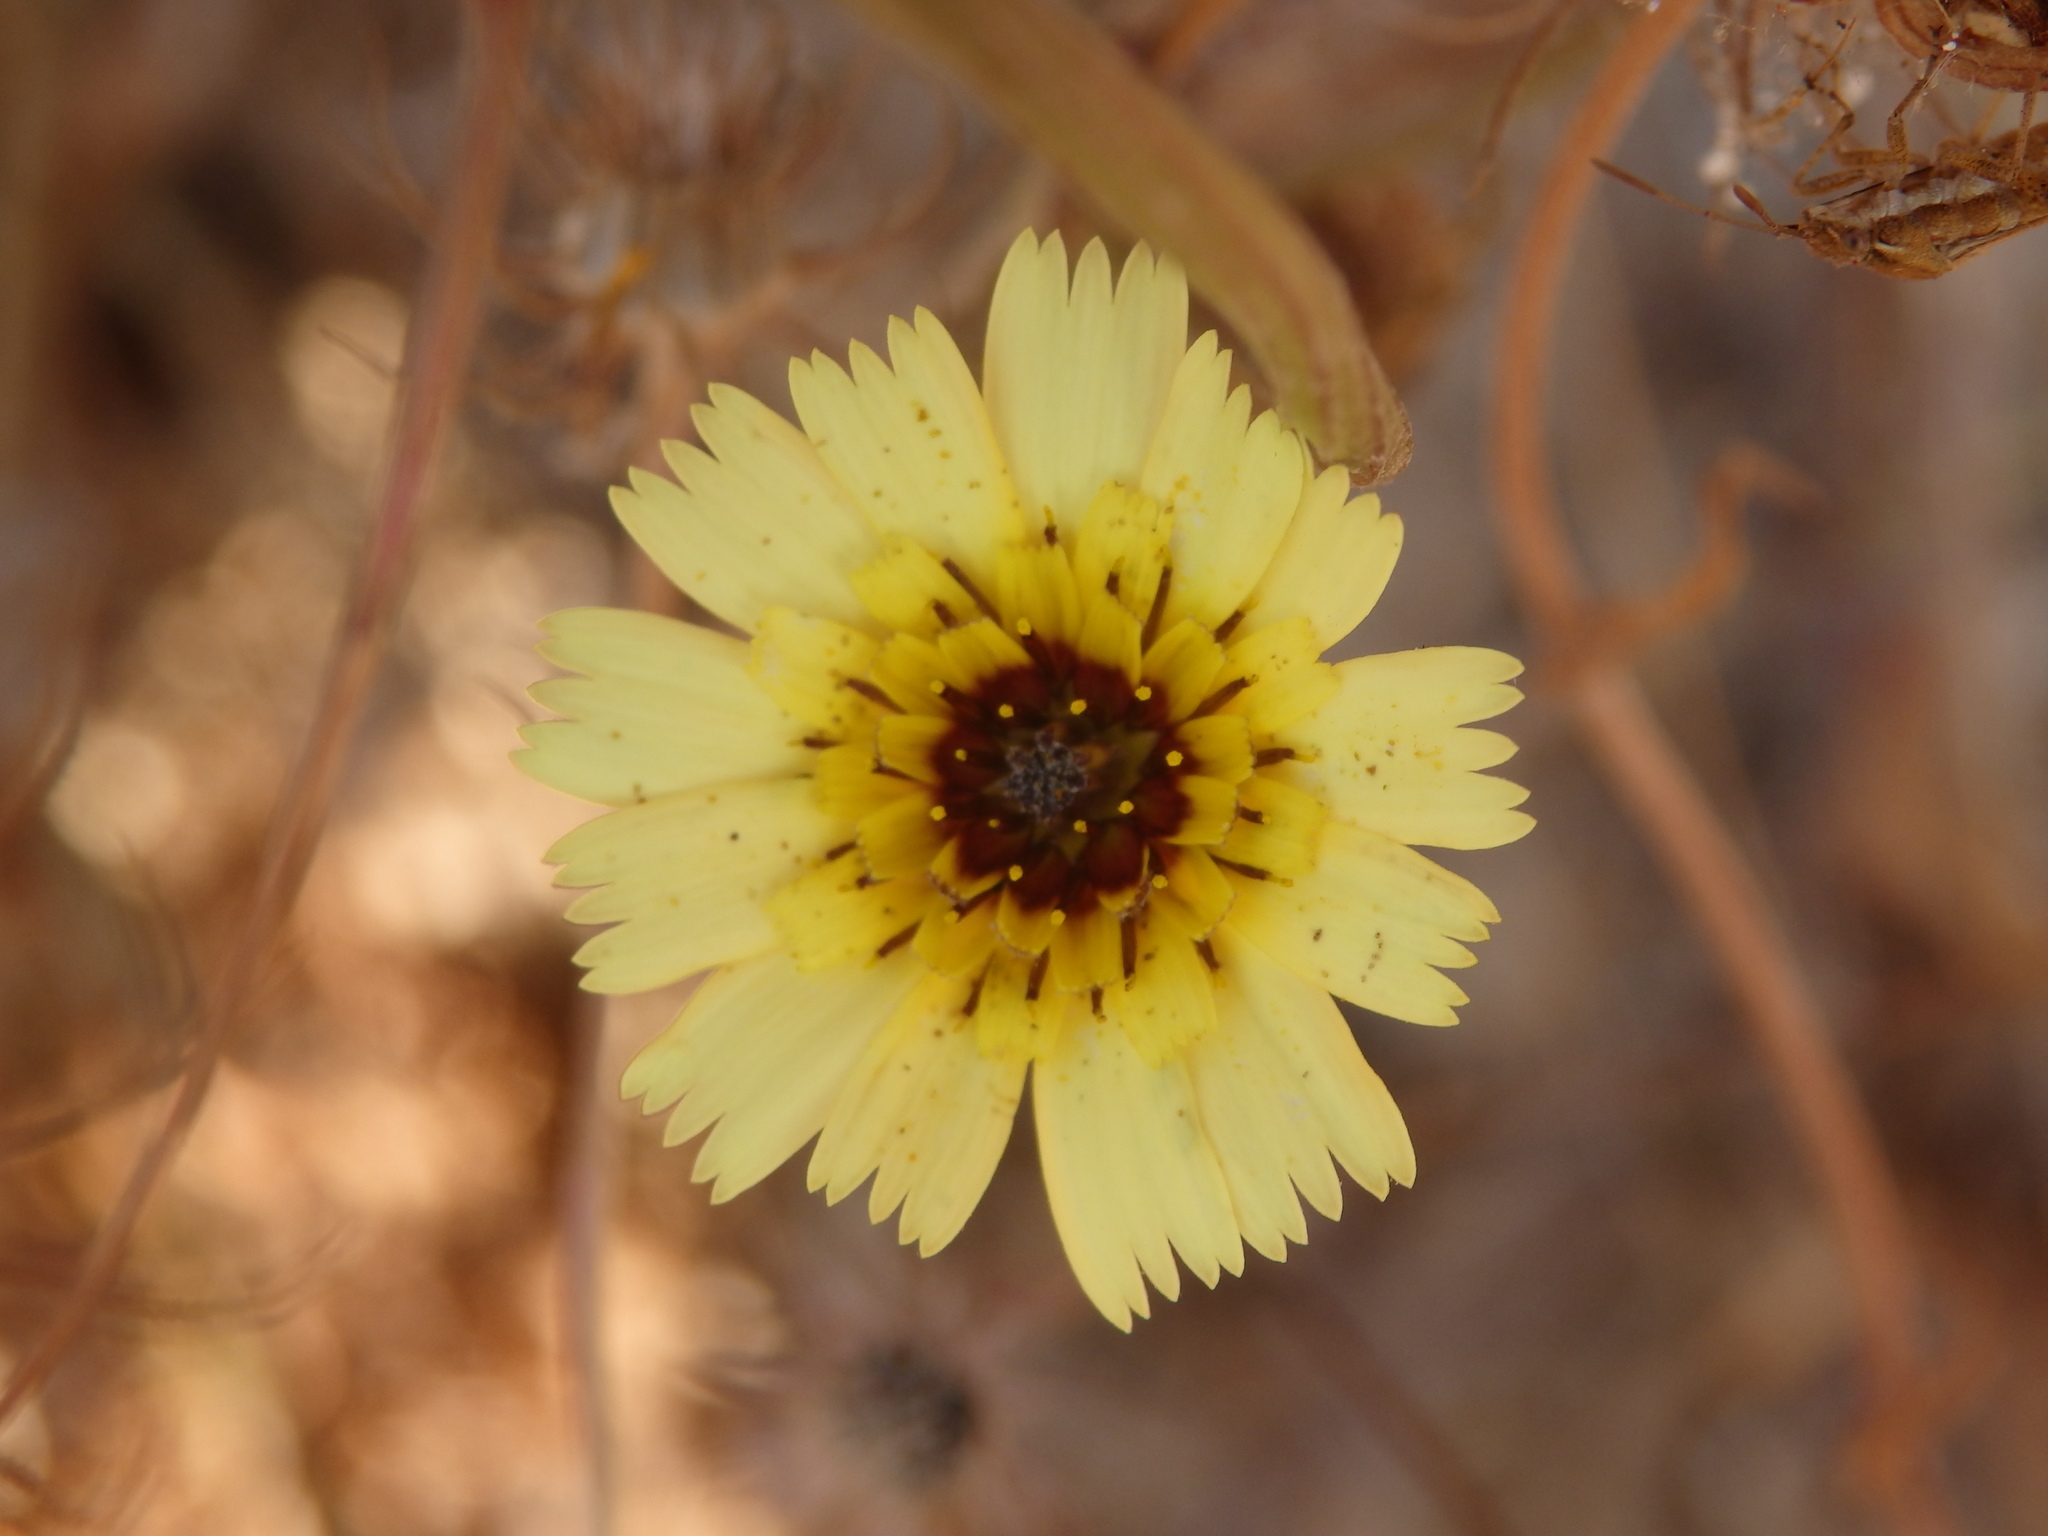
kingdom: Plantae
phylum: Tracheophyta
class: Magnoliopsida
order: Asterales
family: Asteraceae
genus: Tolpis
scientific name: Tolpis barbata
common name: Yellow hawkweed
